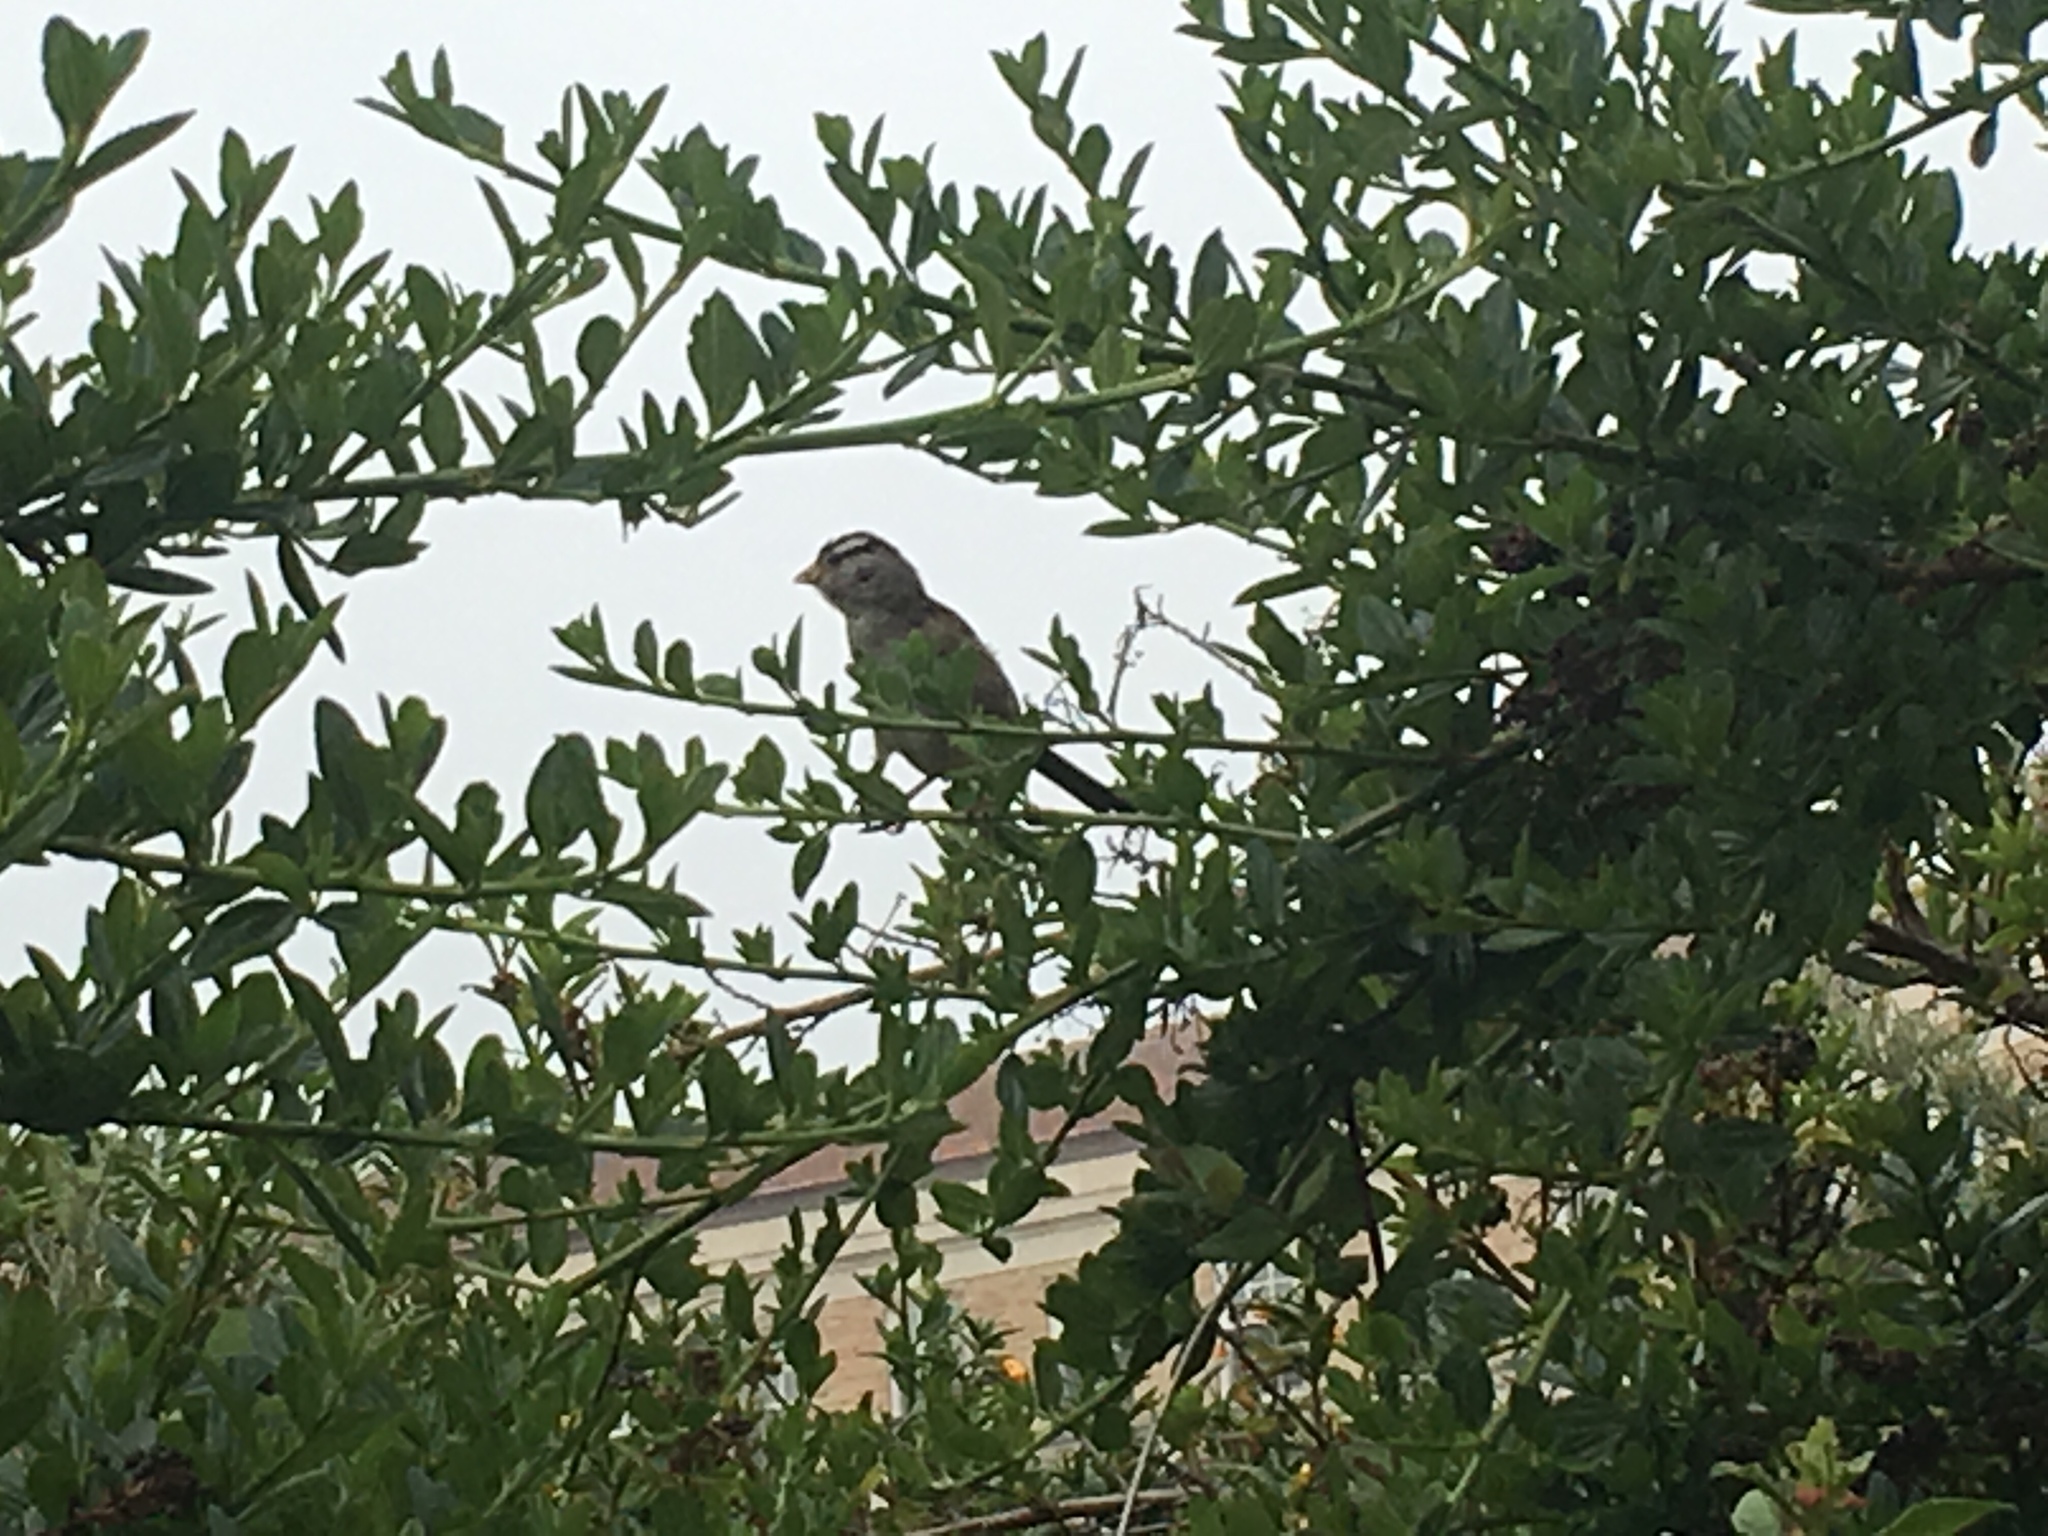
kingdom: Animalia
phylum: Chordata
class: Aves
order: Passeriformes
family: Passerellidae
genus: Zonotrichia
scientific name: Zonotrichia leucophrys
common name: White-crowned sparrow
